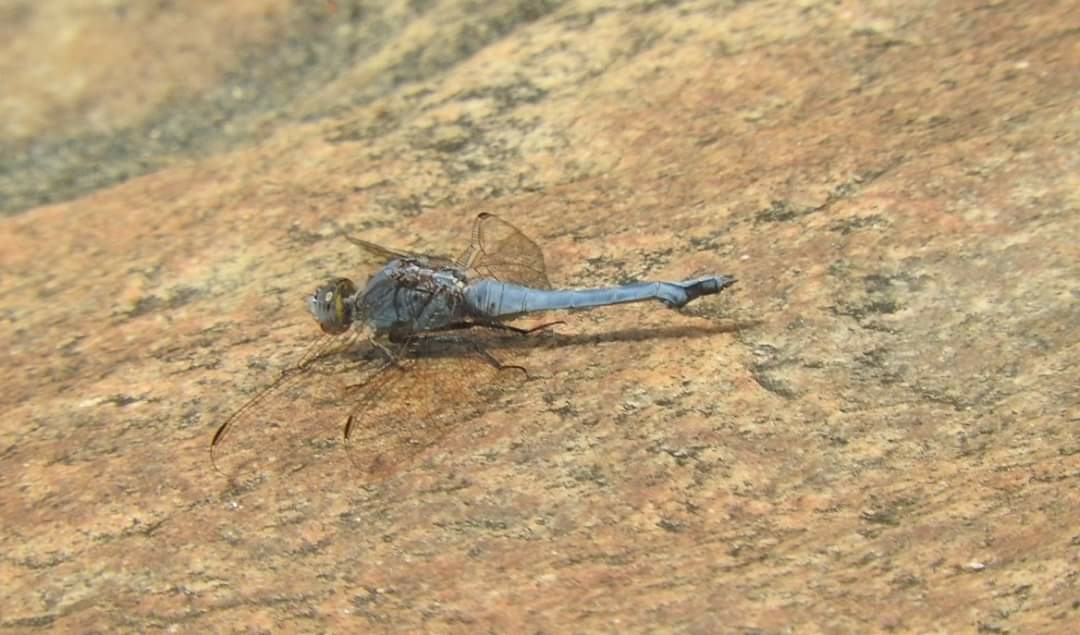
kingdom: Animalia
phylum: Arthropoda
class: Insecta
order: Odonata
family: Libellulidae
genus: Orthetrum
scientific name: Orthetrum taeniolatum
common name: Small skimmer
